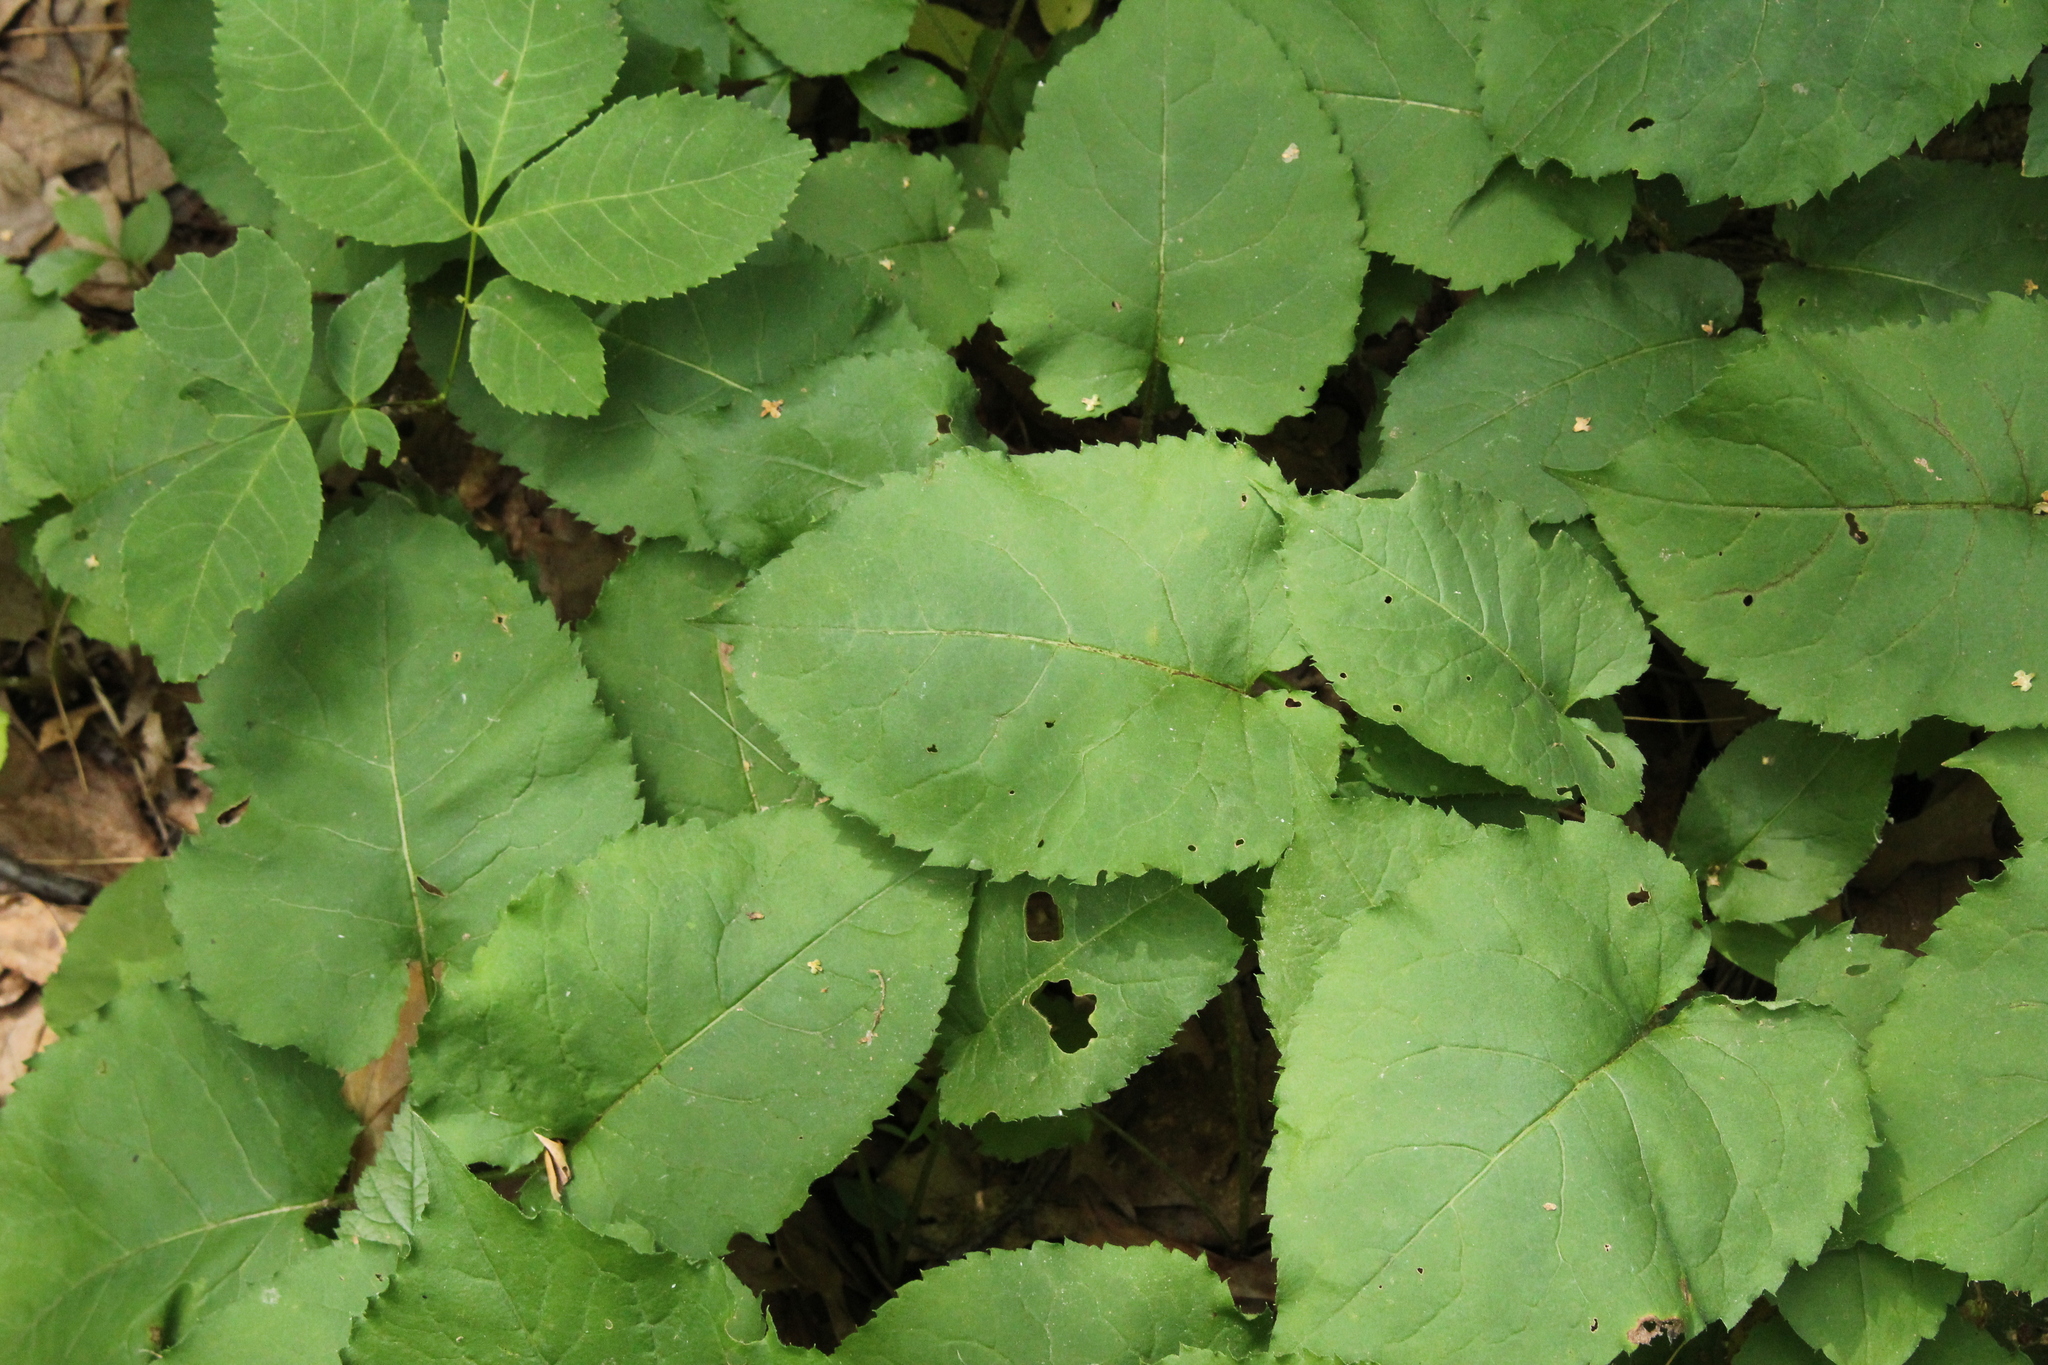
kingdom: Plantae
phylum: Tracheophyta
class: Magnoliopsida
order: Asterales
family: Asteraceae
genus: Eurybia
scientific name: Eurybia macrophylla
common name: Big-leaved aster
